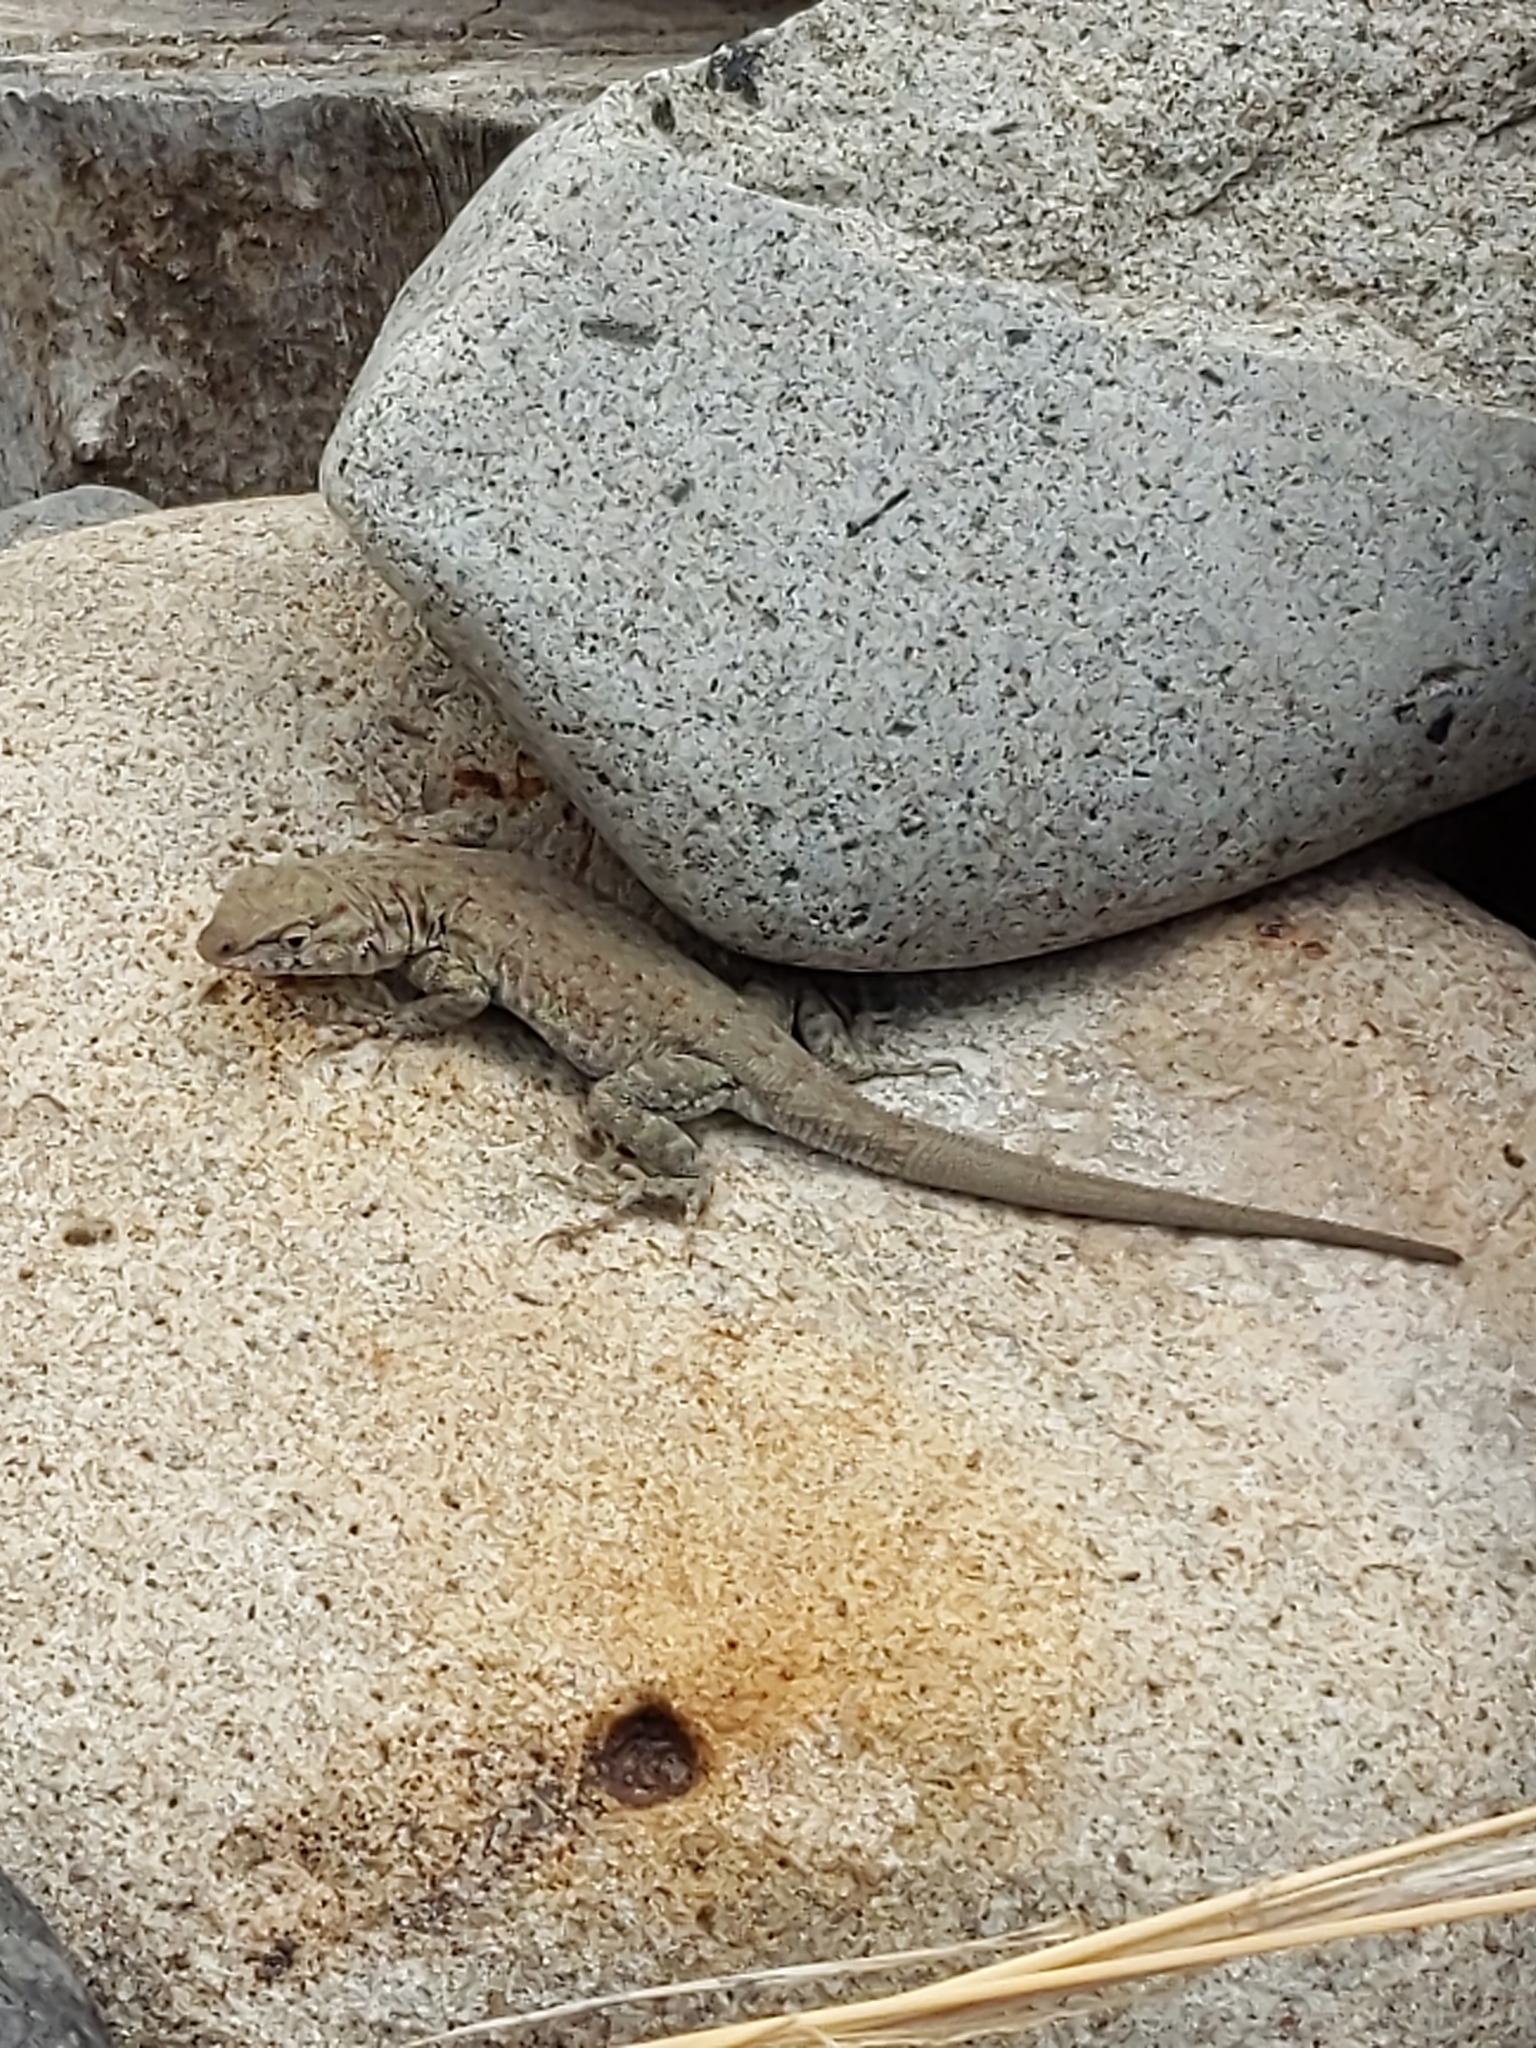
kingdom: Animalia
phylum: Chordata
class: Squamata
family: Phrynosomatidae
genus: Uta
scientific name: Uta stansburiana
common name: Side-blotched lizard
